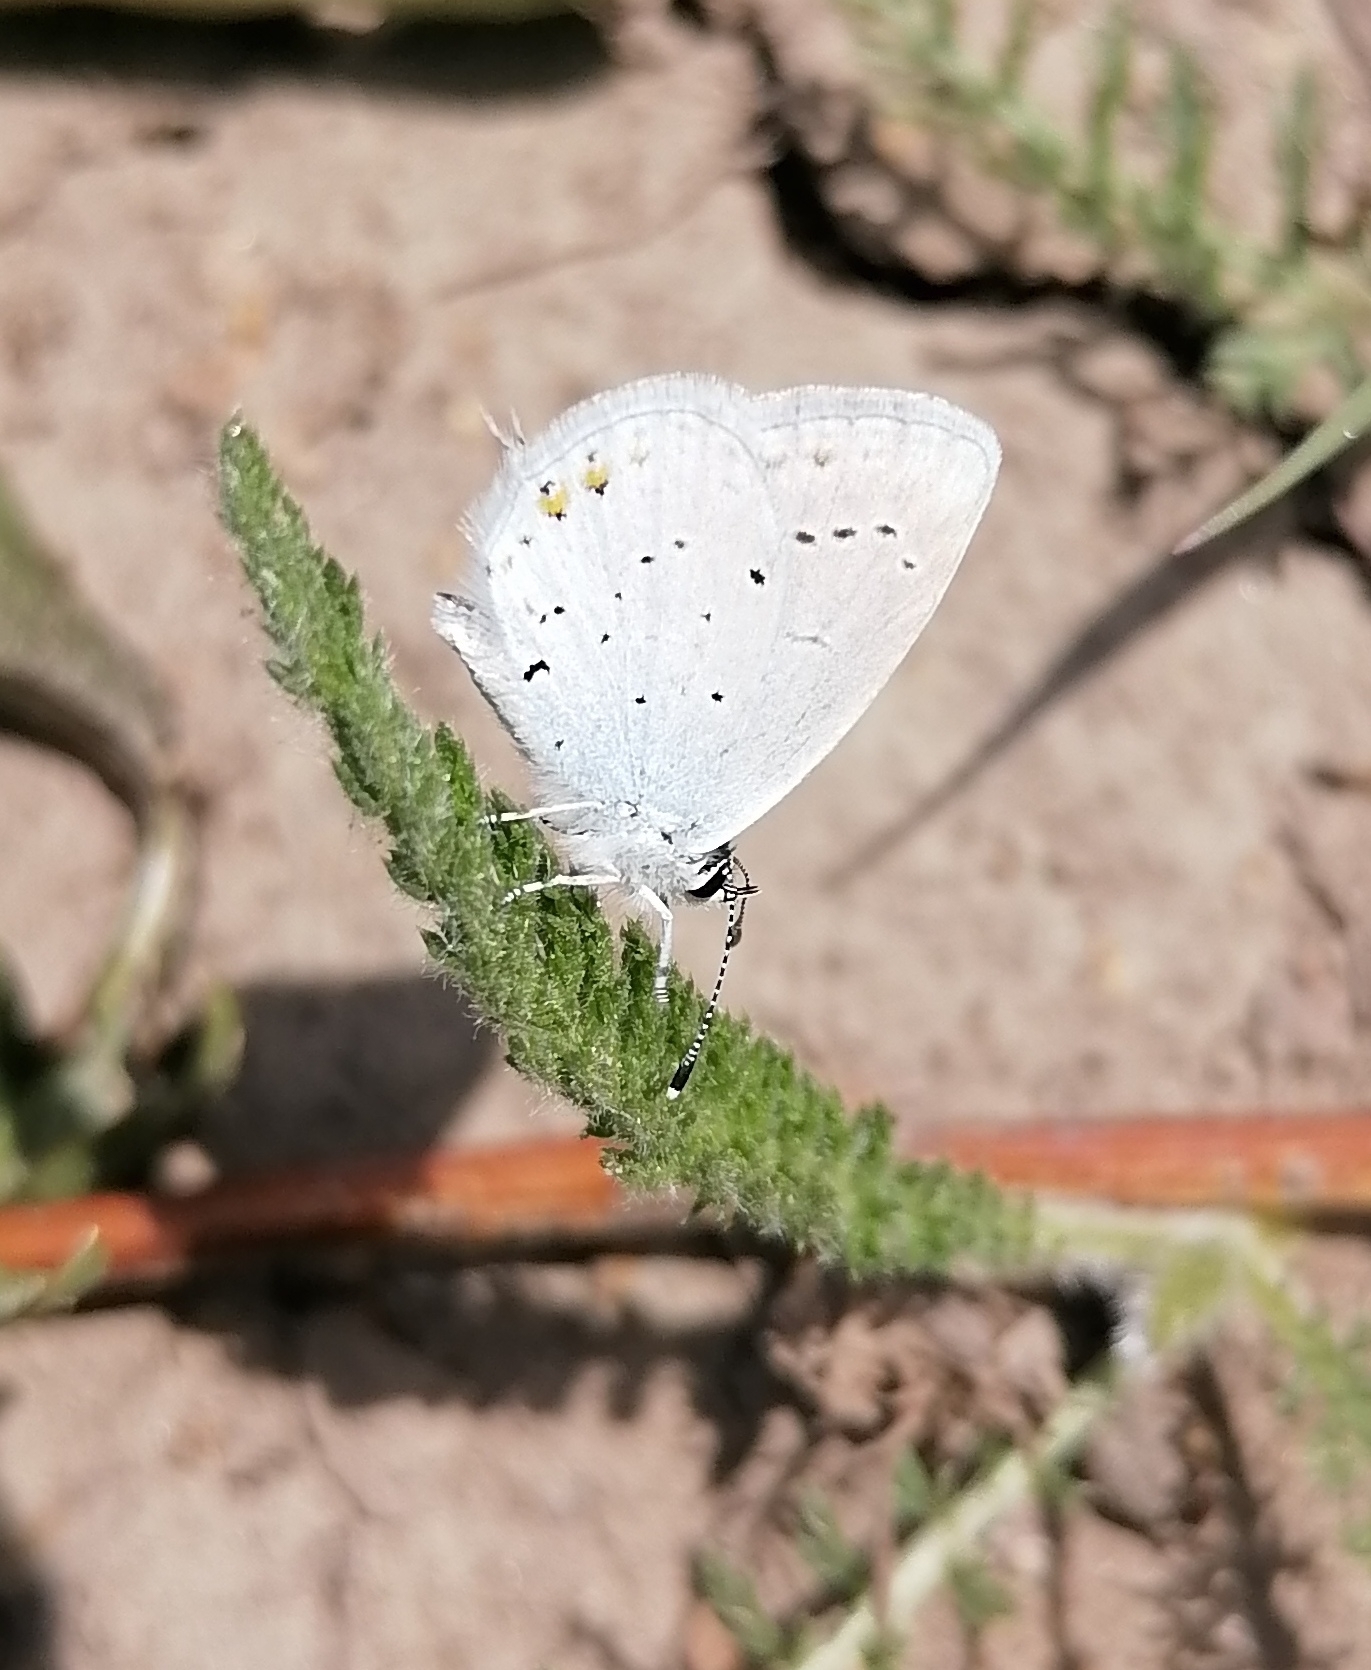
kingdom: Animalia
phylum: Arthropoda
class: Insecta
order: Lepidoptera
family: Lycaenidae
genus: Elkalyce
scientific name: Elkalyce argiades
